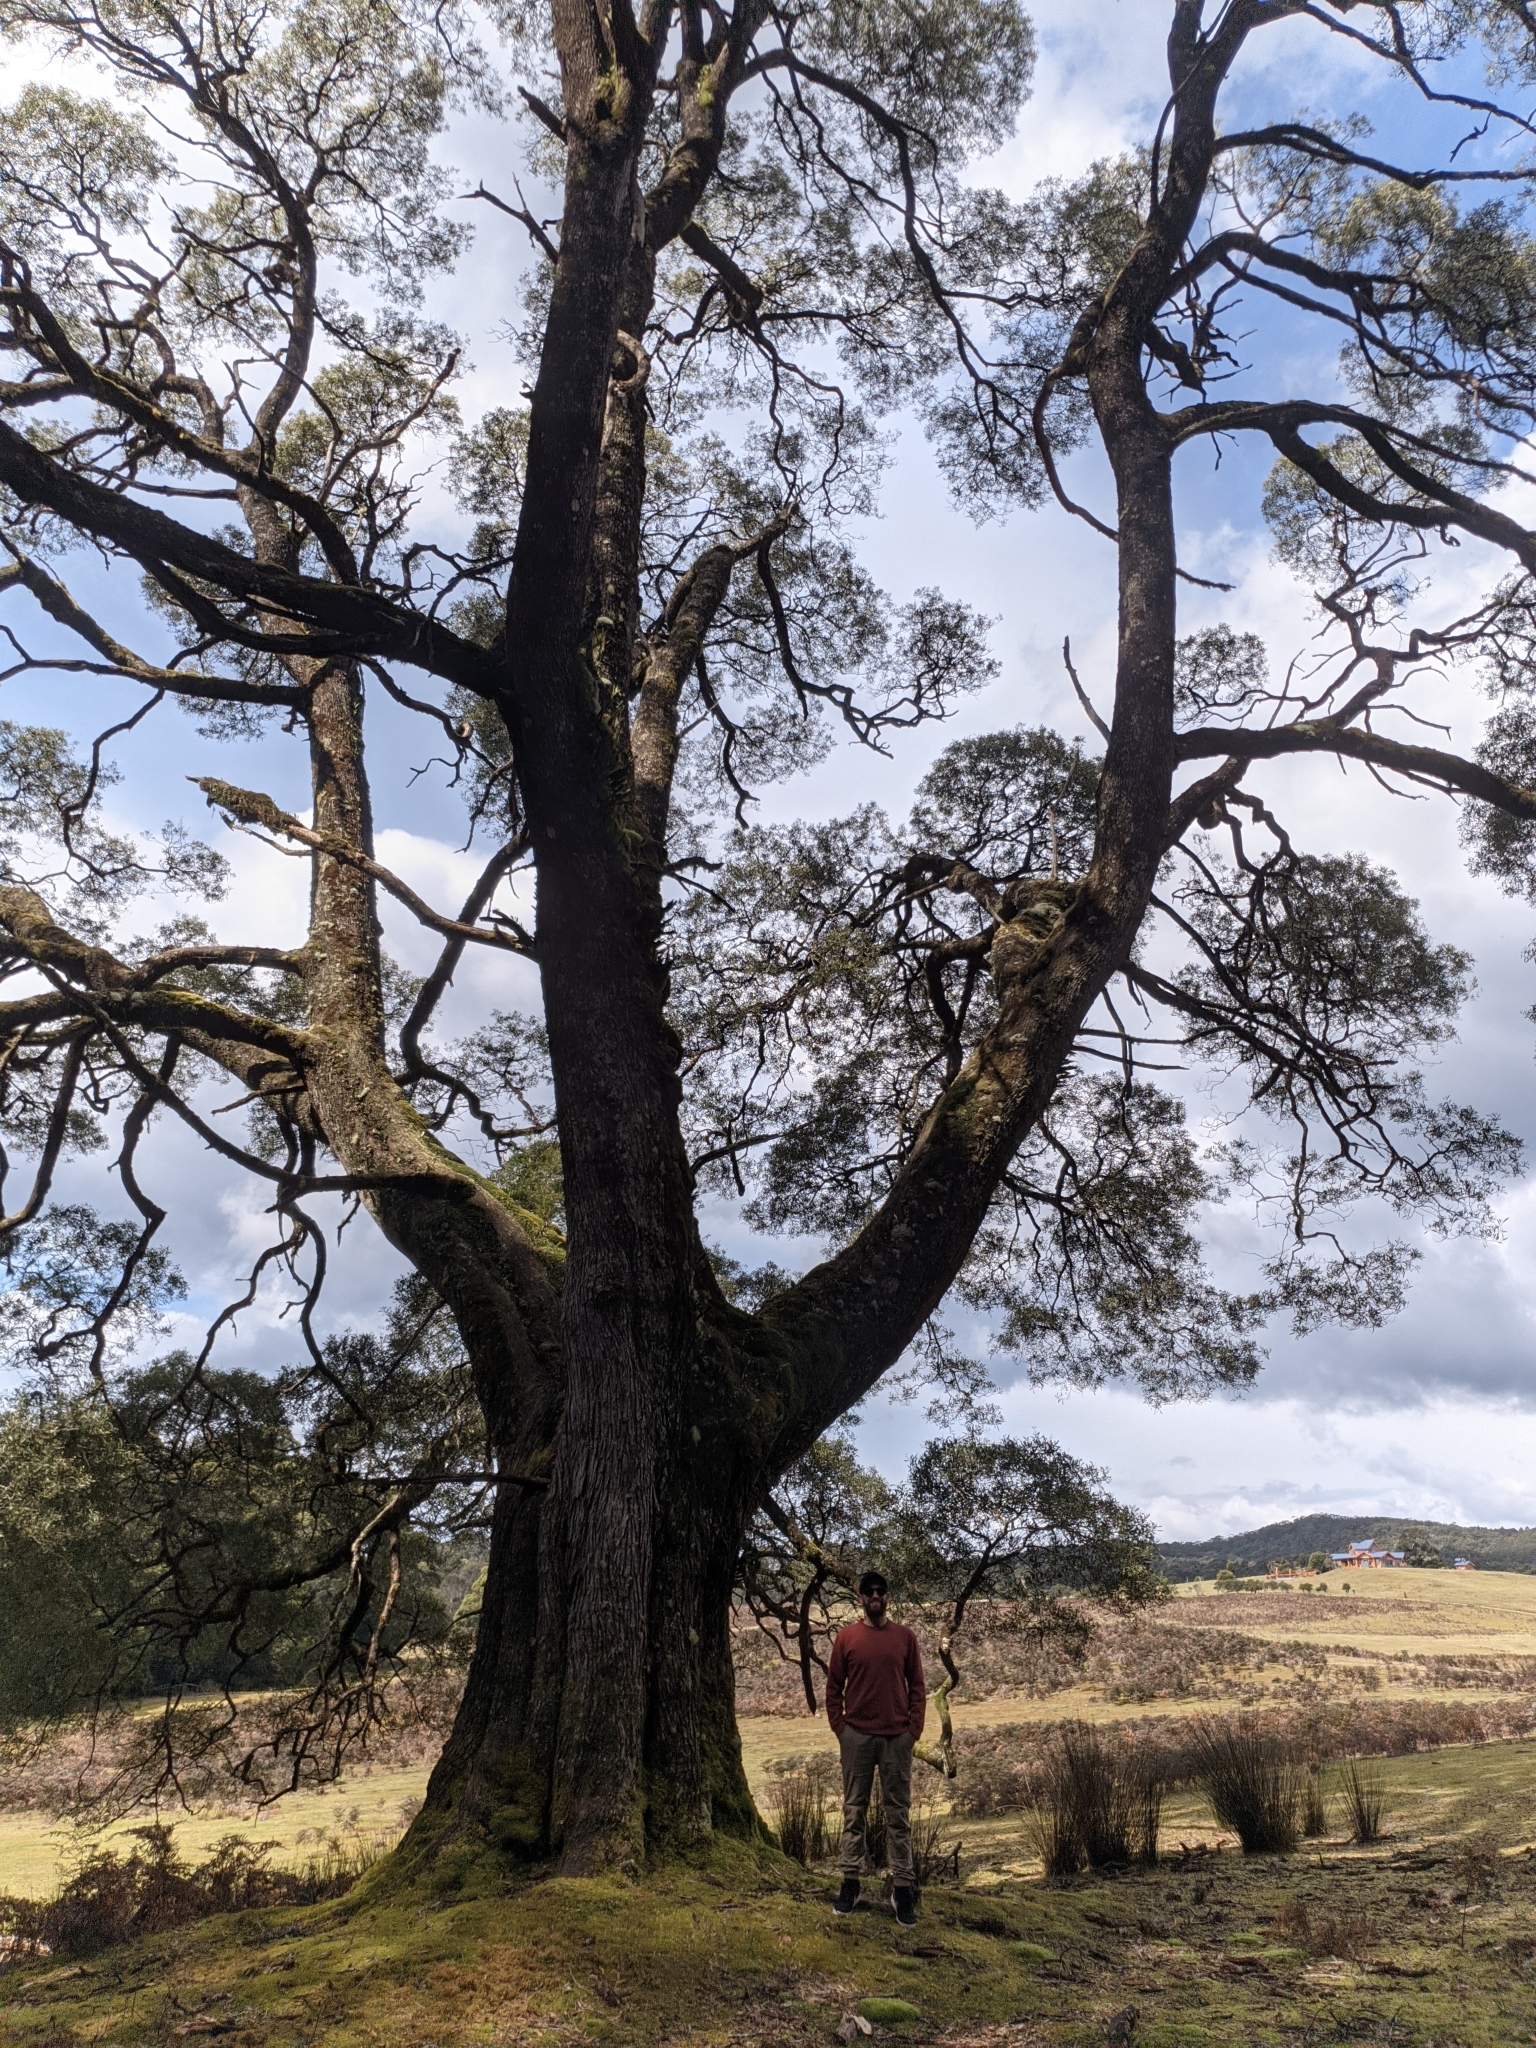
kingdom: Plantae
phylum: Tracheophyta
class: Magnoliopsida
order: Fabales
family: Fabaceae
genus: Acacia
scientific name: Acacia melanoxylon
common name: Blackwood
